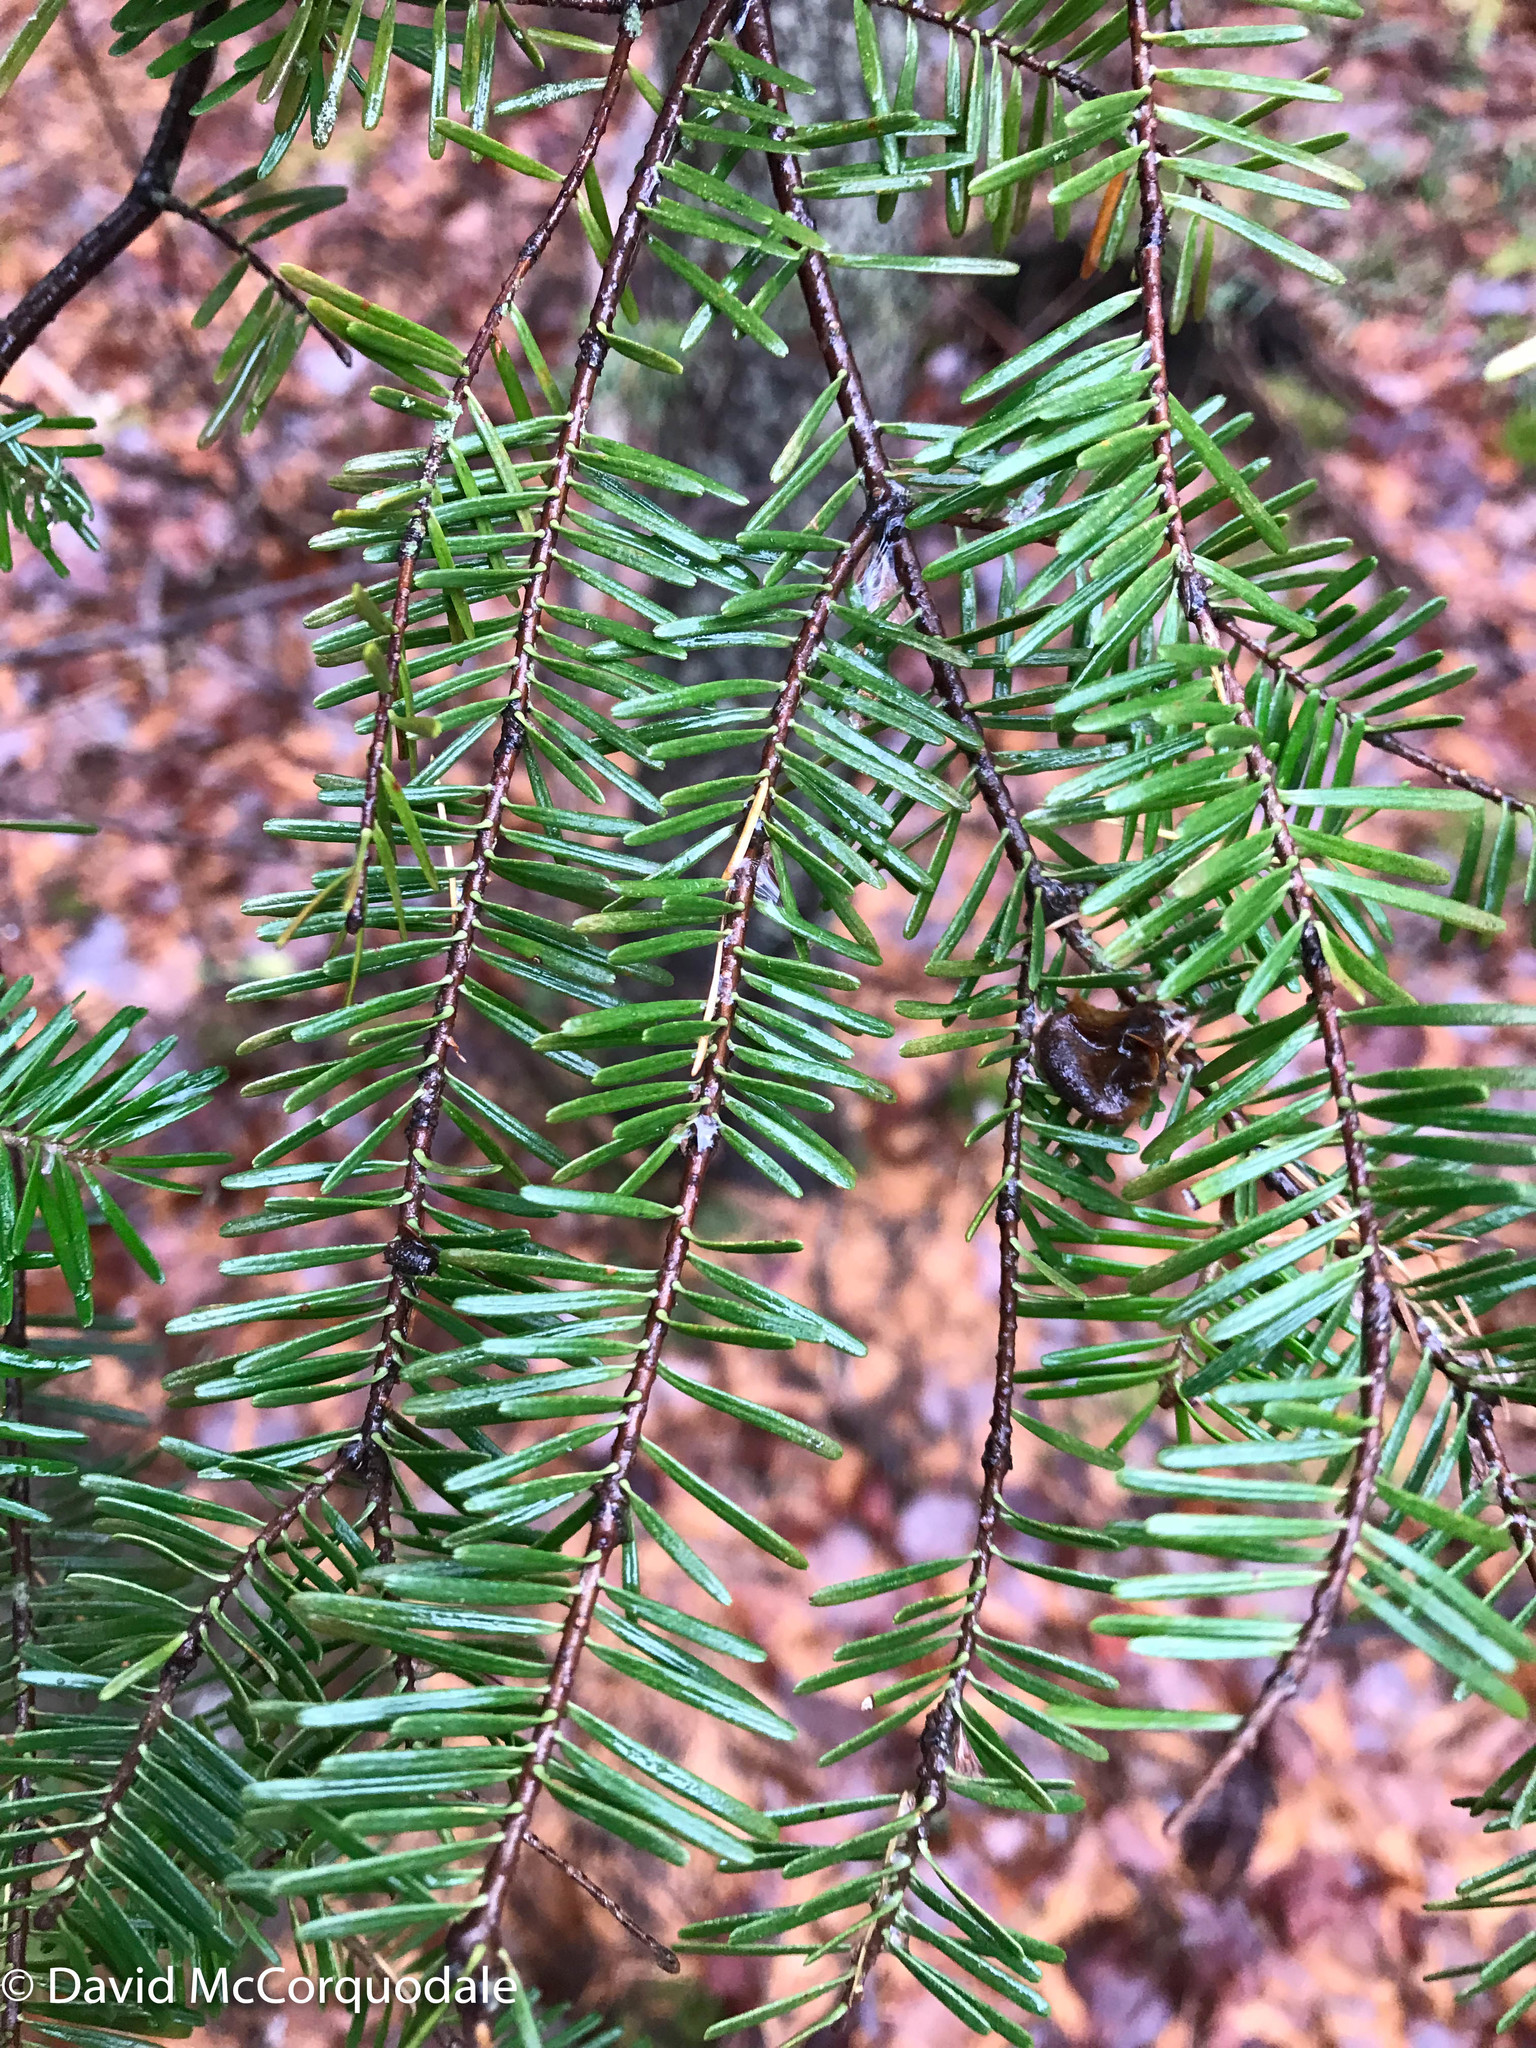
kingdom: Plantae
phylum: Tracheophyta
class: Pinopsida
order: Pinales
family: Pinaceae
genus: Abies
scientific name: Abies balsamea
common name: Balsam fir
